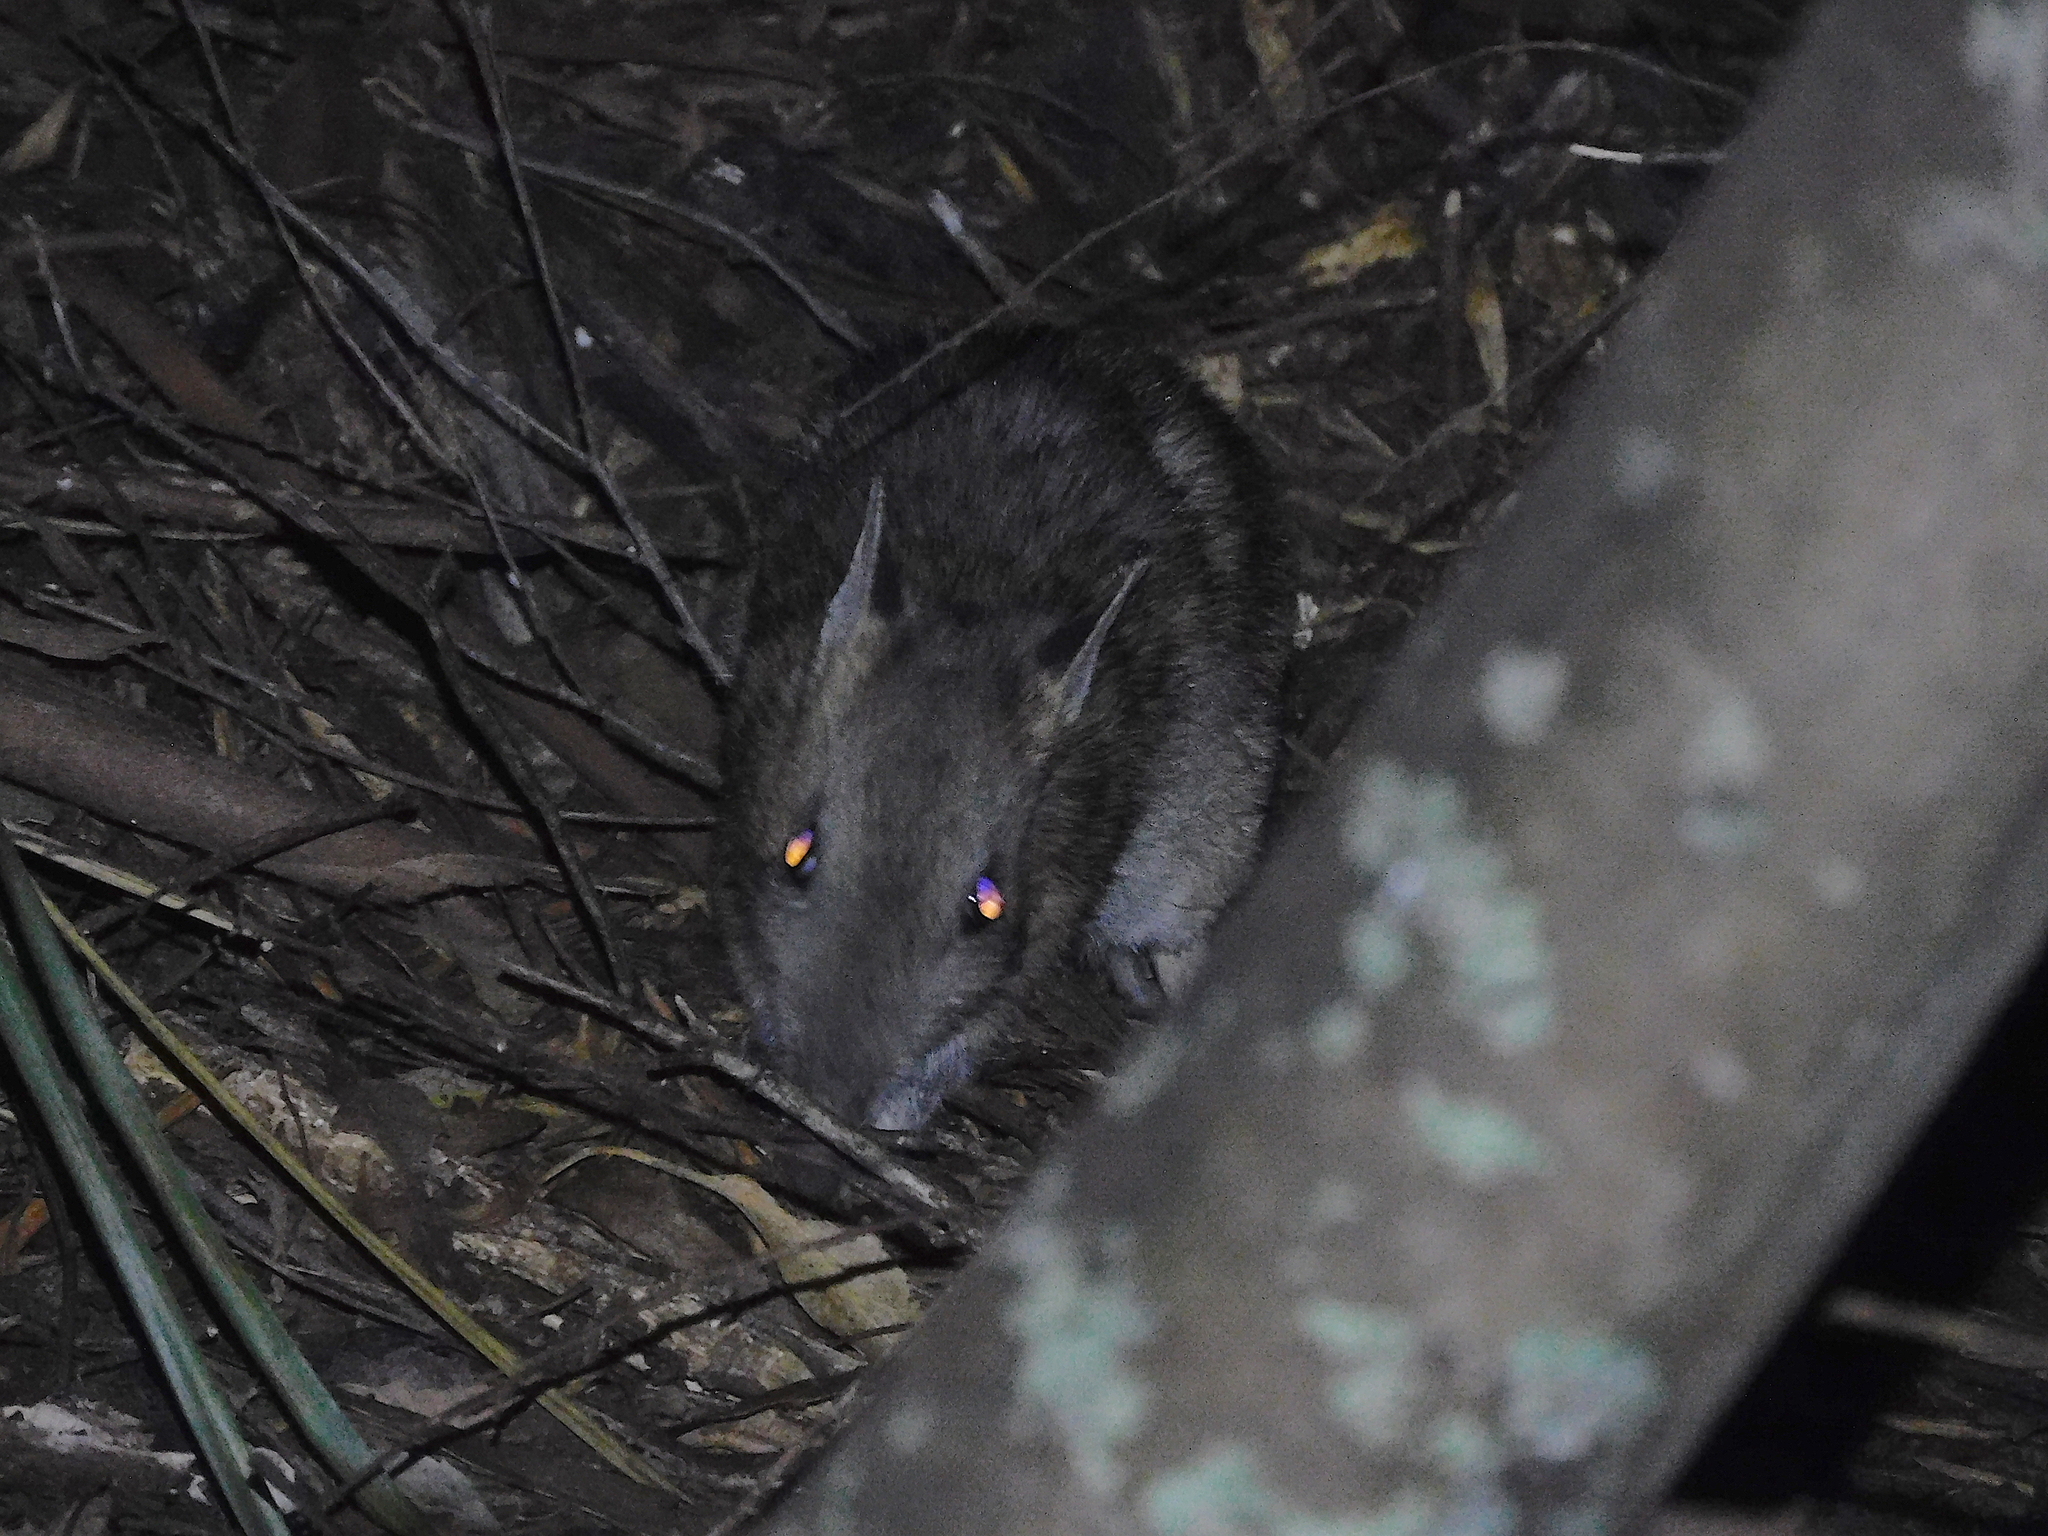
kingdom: Animalia
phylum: Chordata
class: Mammalia
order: Peramelemorphia
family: Peramelidae
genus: Perameles
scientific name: Perameles gunnii
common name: Eastern barred bandicoot
